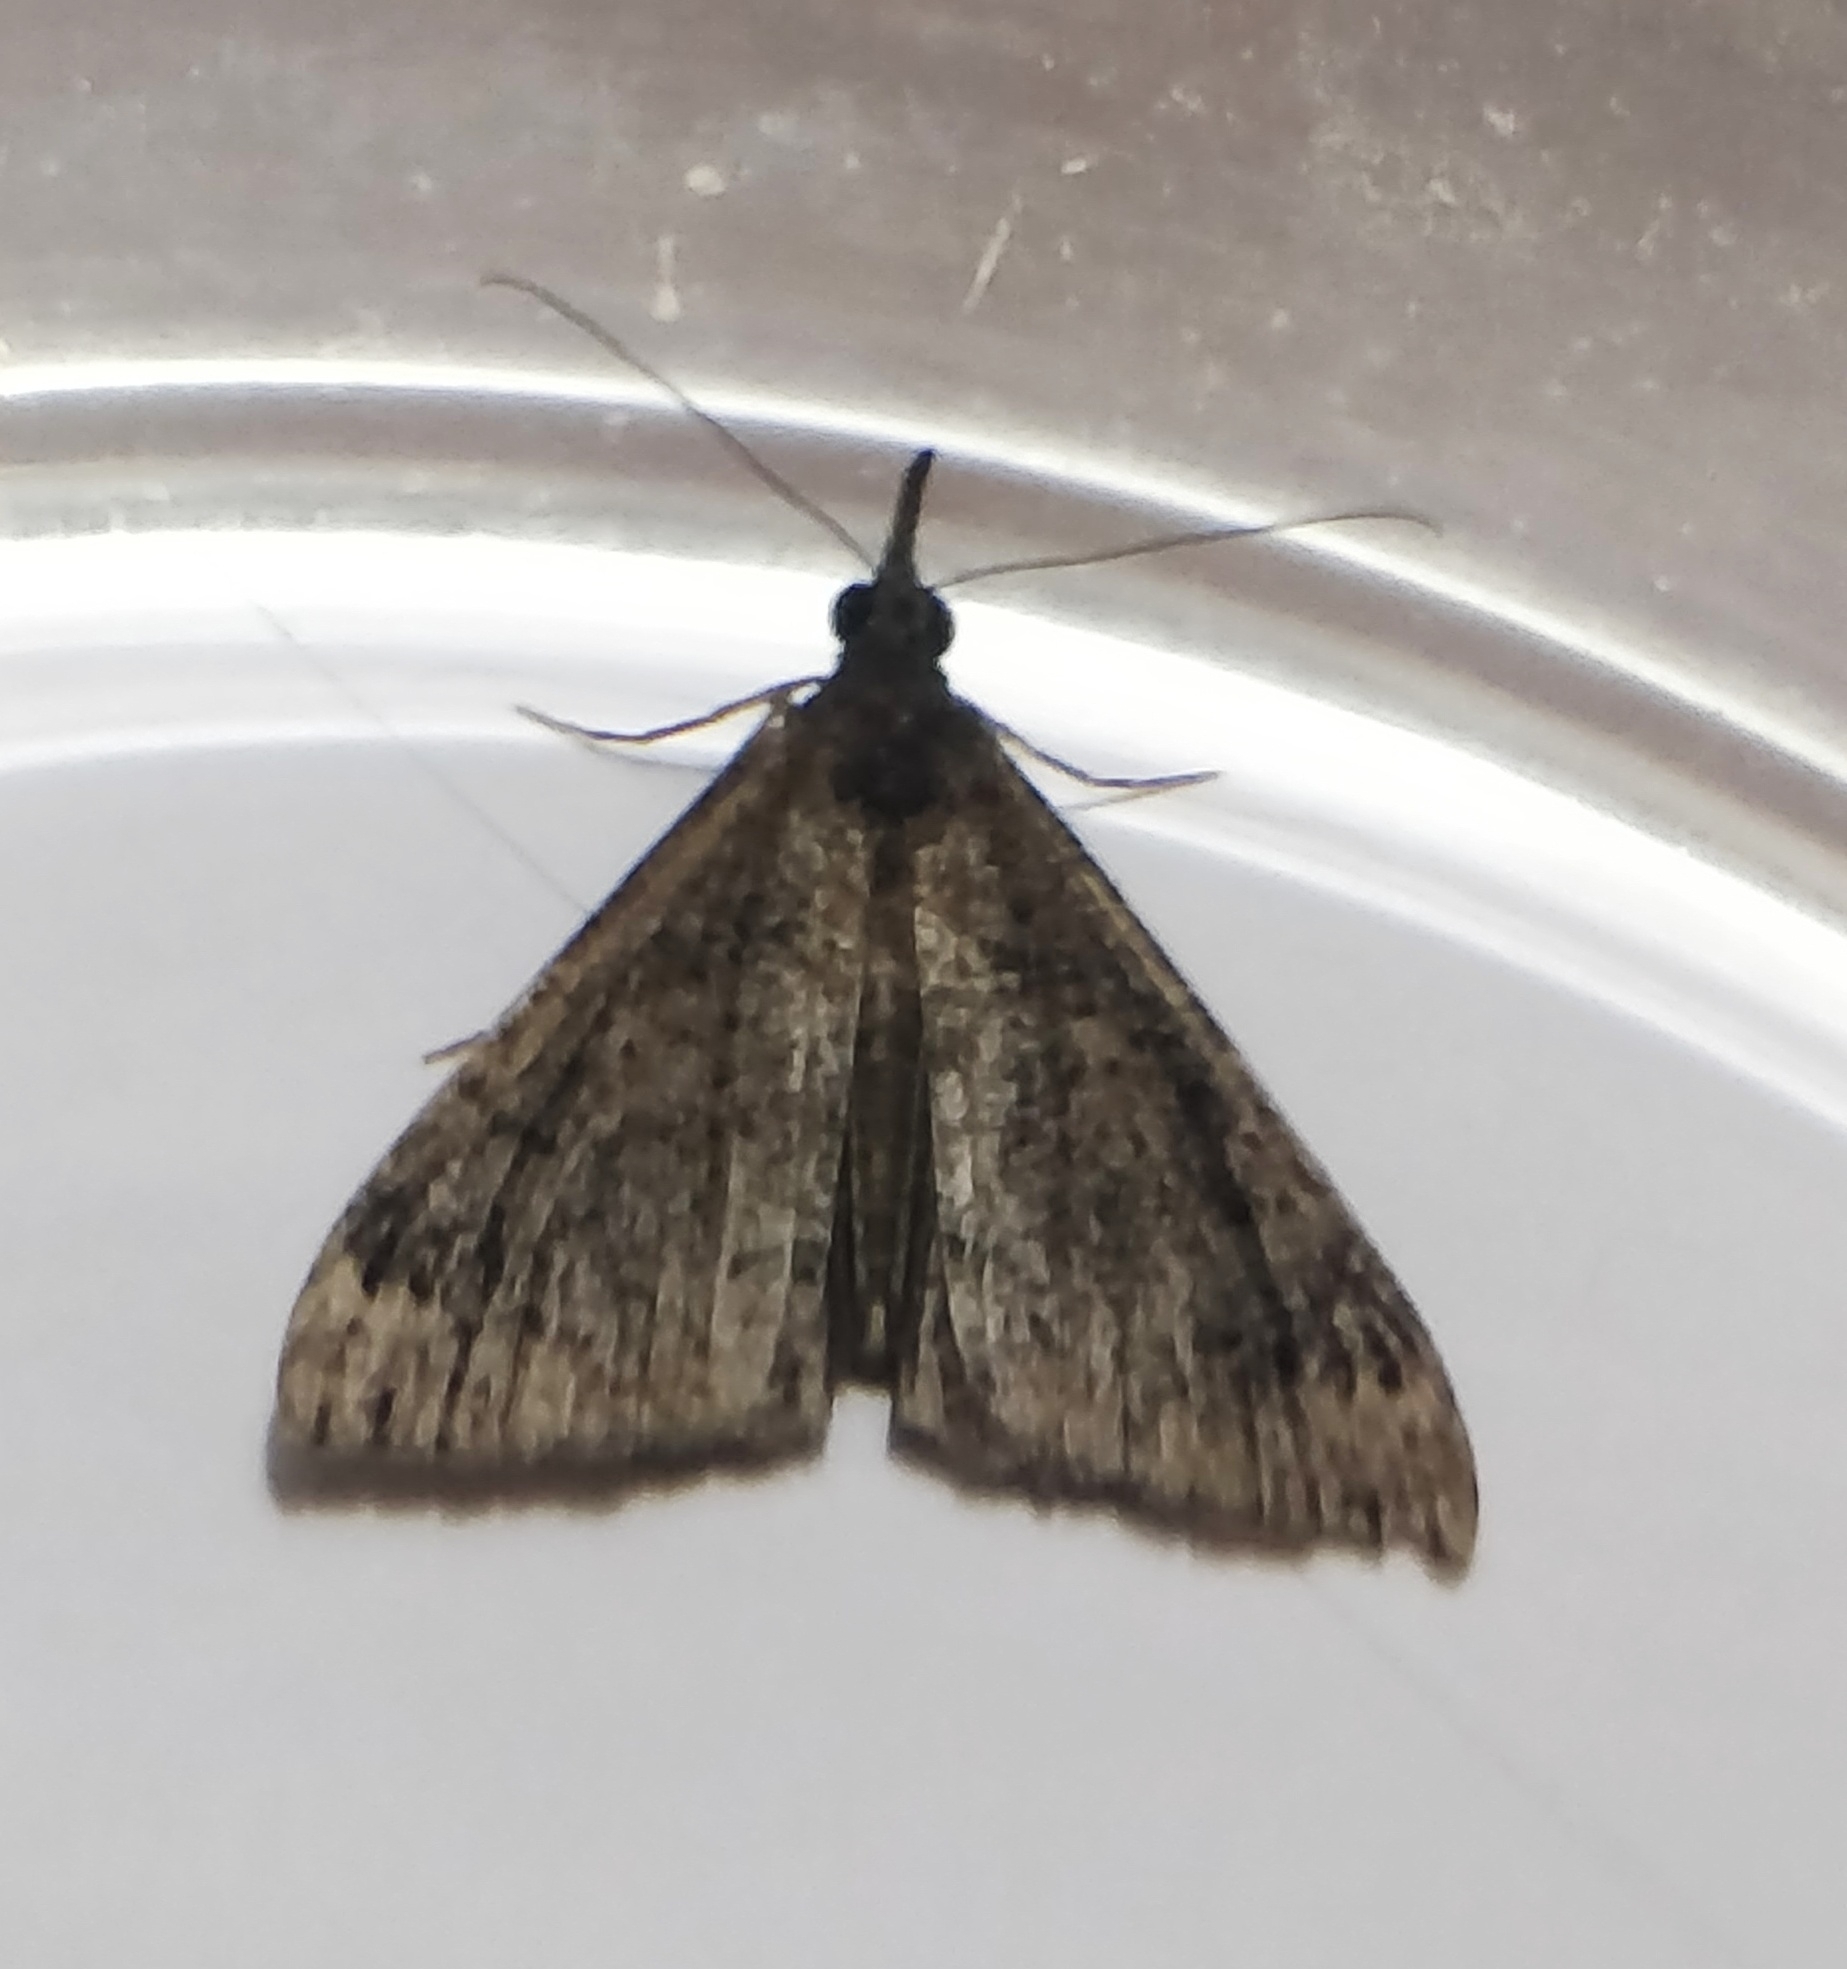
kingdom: Animalia
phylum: Arthropoda
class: Insecta
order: Lepidoptera
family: Erebidae
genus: Hypena
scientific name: Hypena obsitalis
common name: Bloxworth snout
